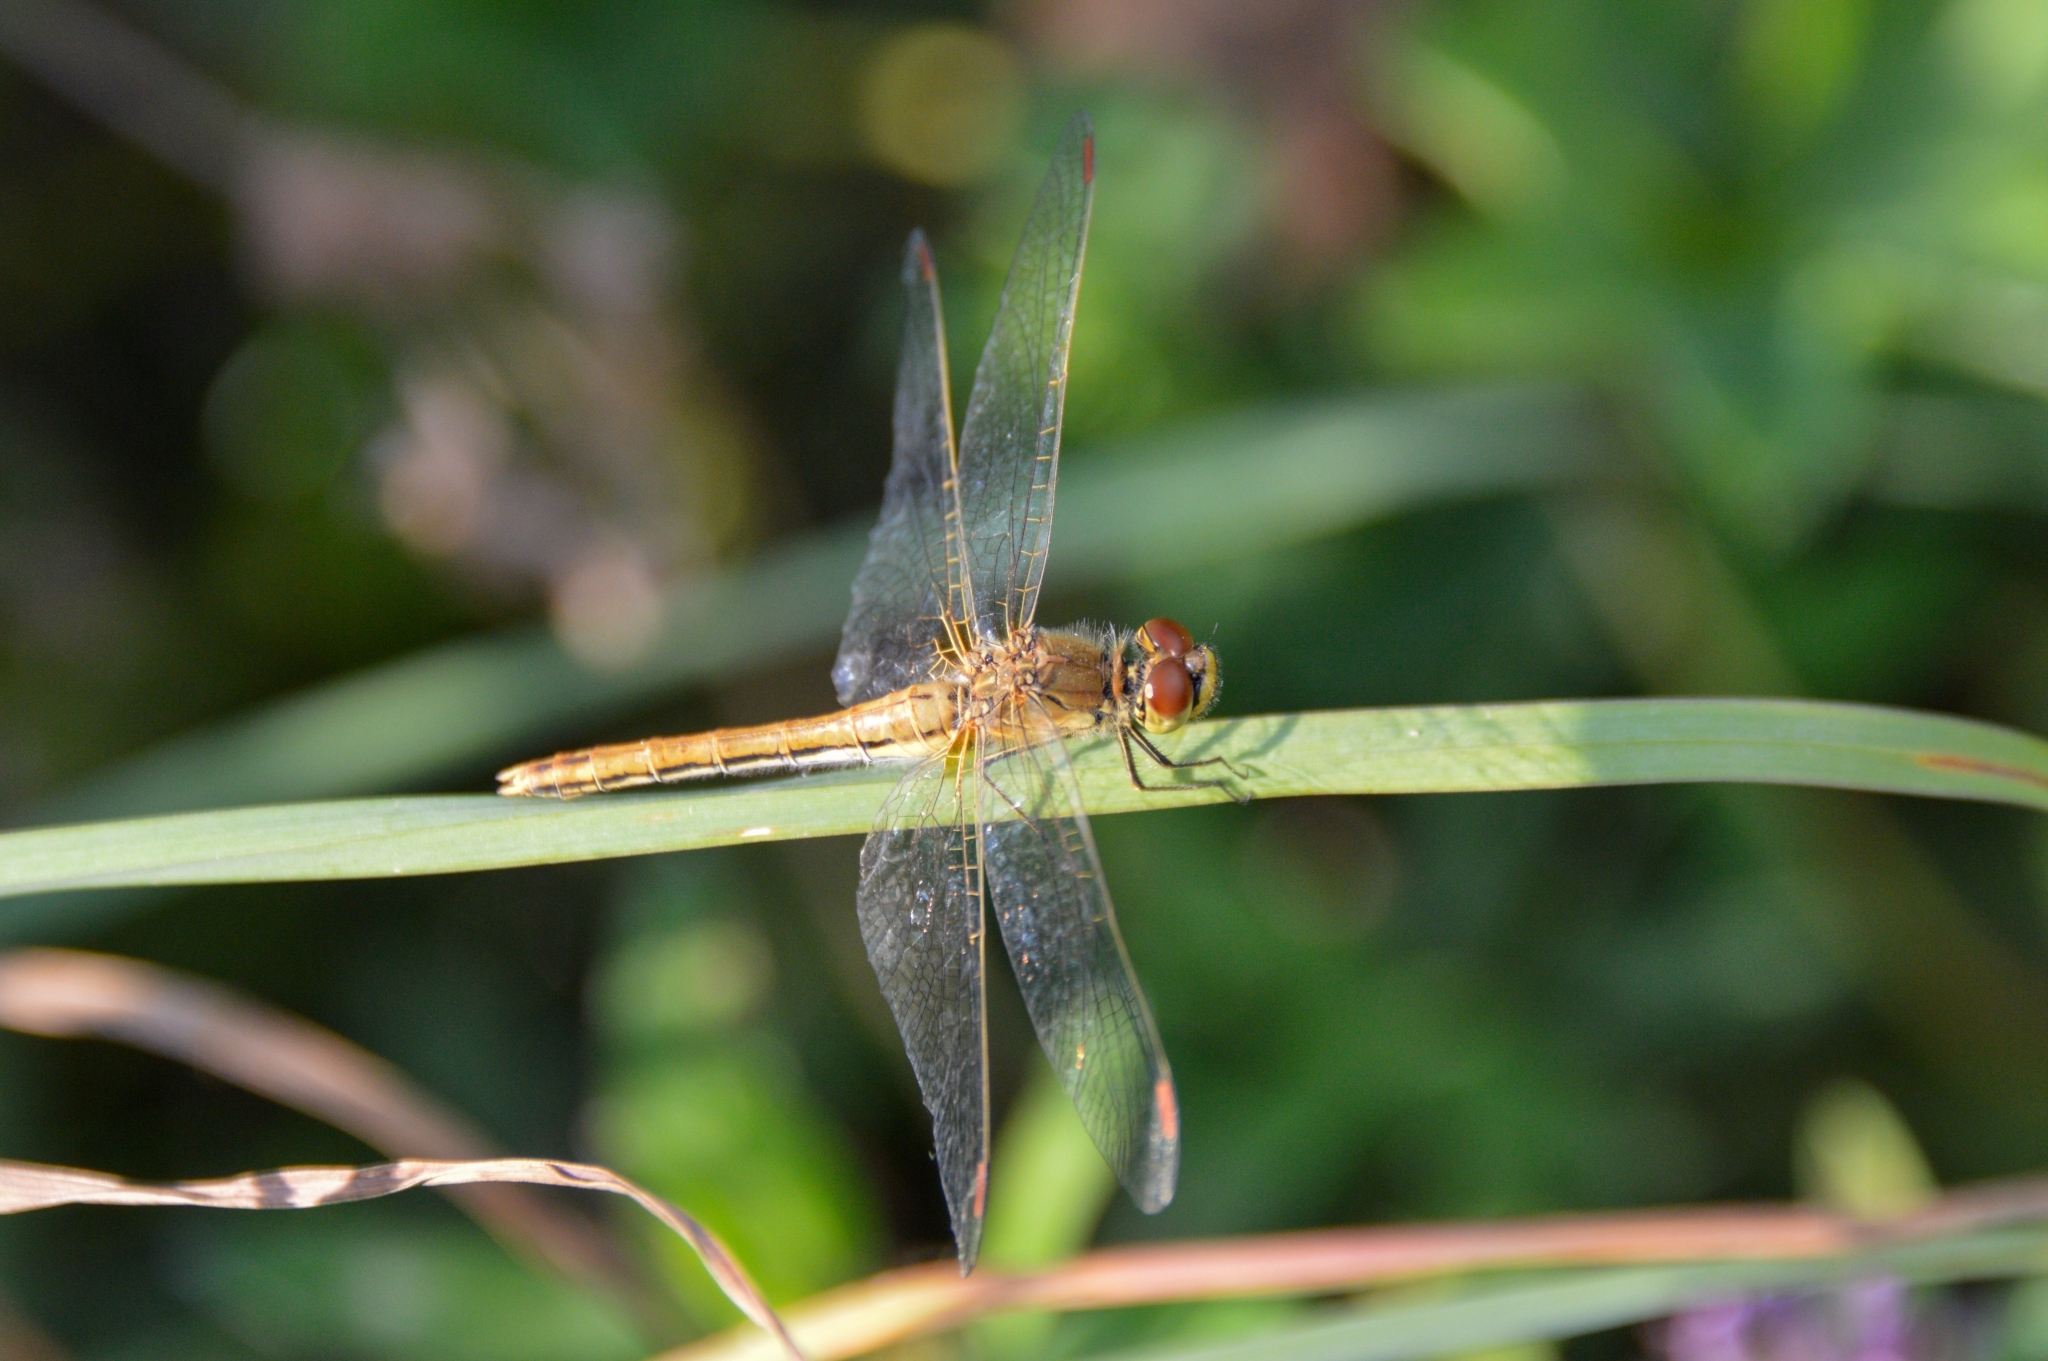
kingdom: Animalia
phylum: Arthropoda
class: Insecta
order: Odonata
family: Libellulidae
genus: Sympetrum
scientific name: Sympetrum flaveolum
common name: Yellow-winged darter
